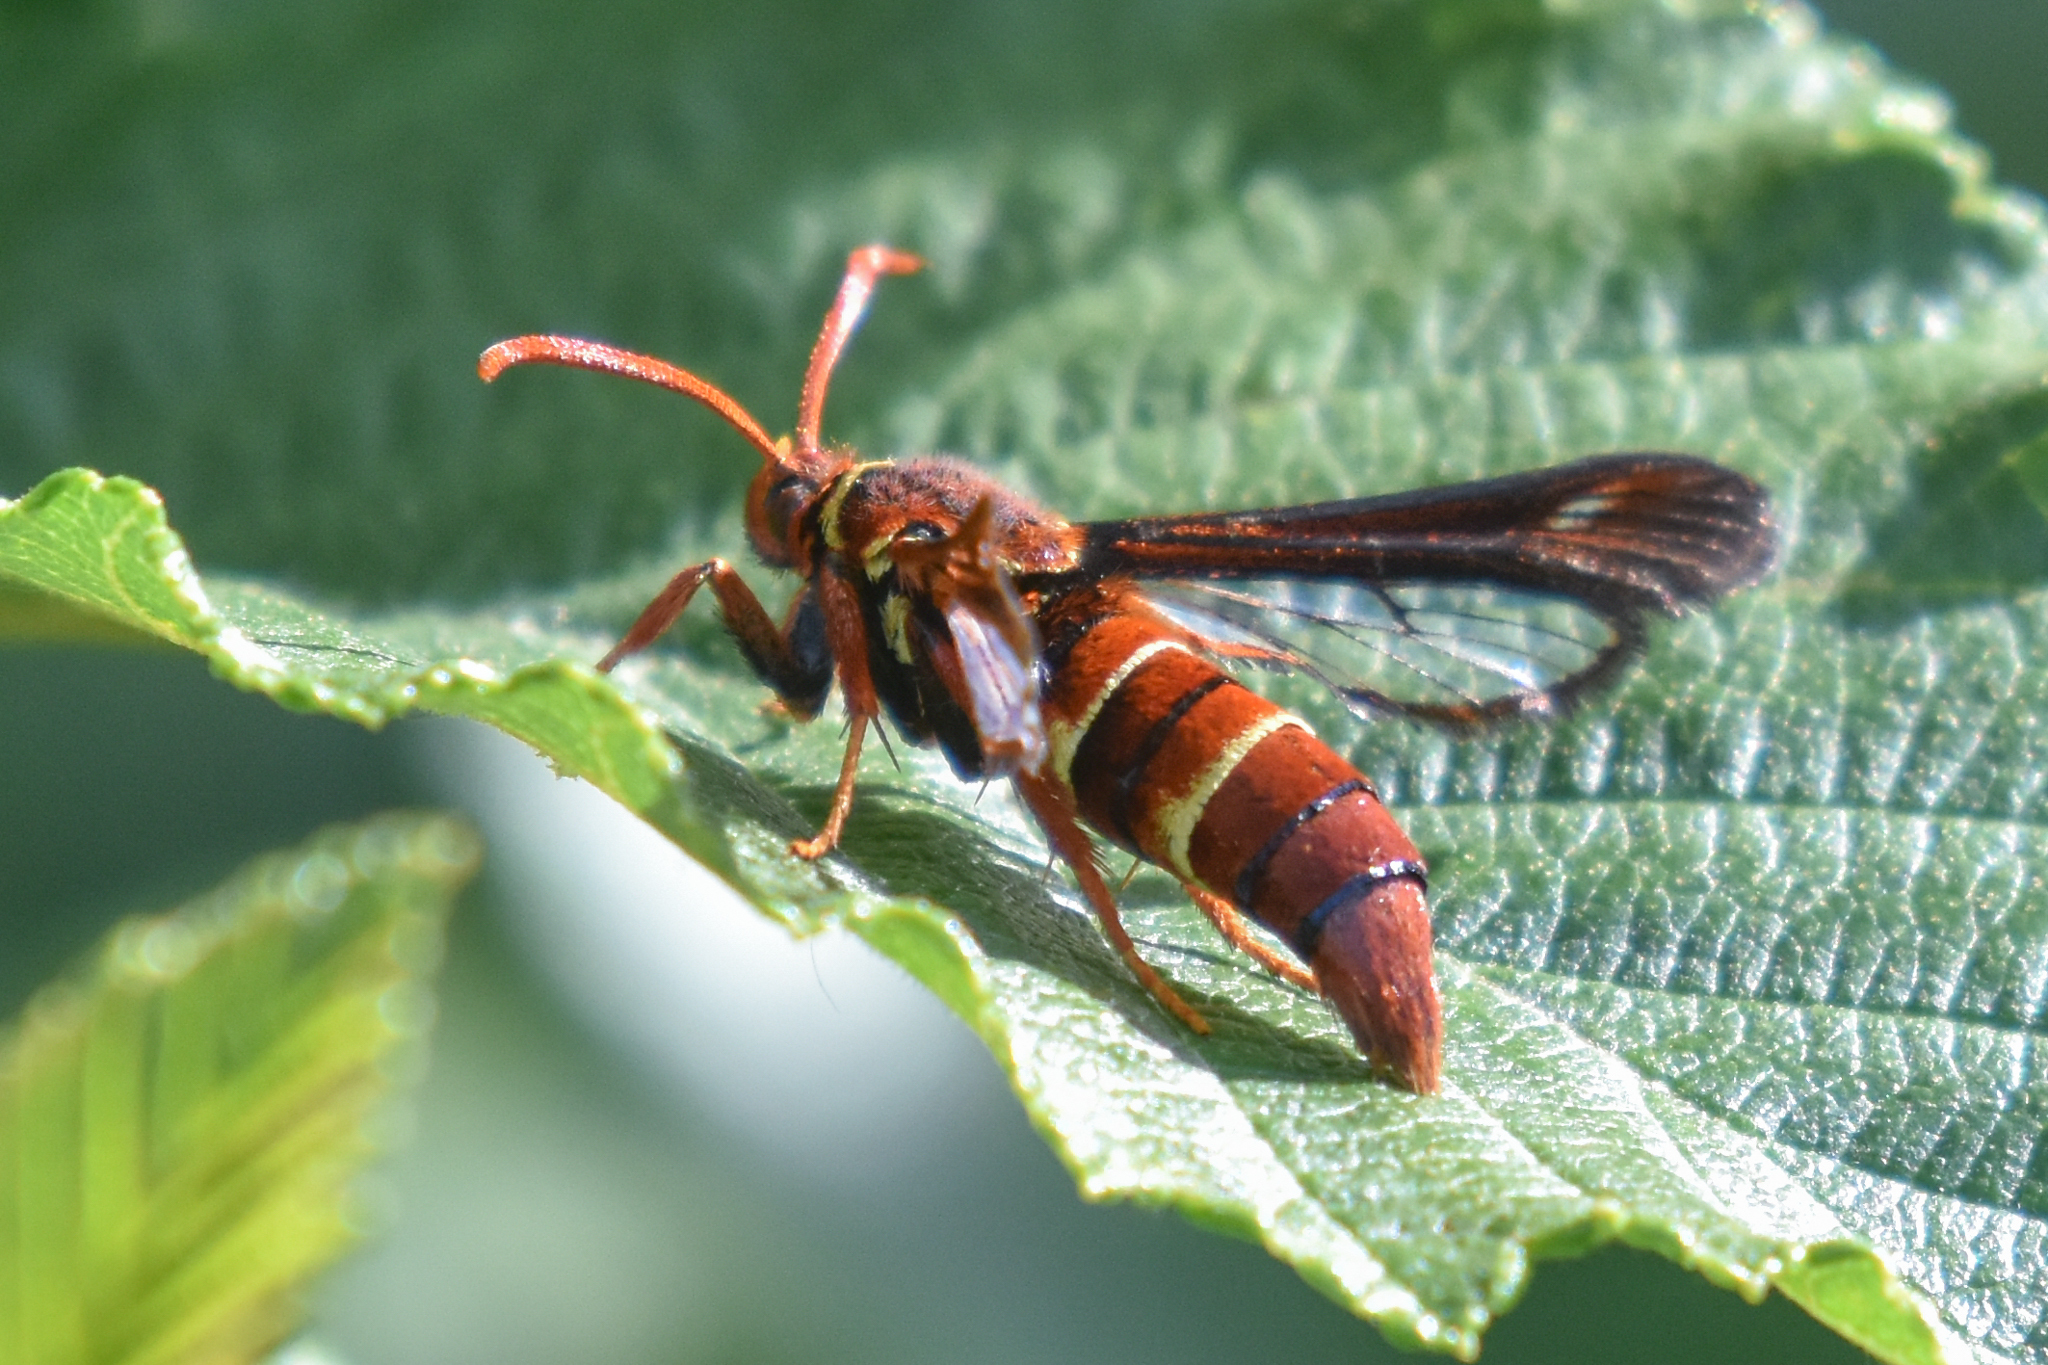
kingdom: Animalia
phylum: Arthropoda
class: Insecta
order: Lepidoptera
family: Sesiidae
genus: Paranthrene
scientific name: Paranthrene robiniae
